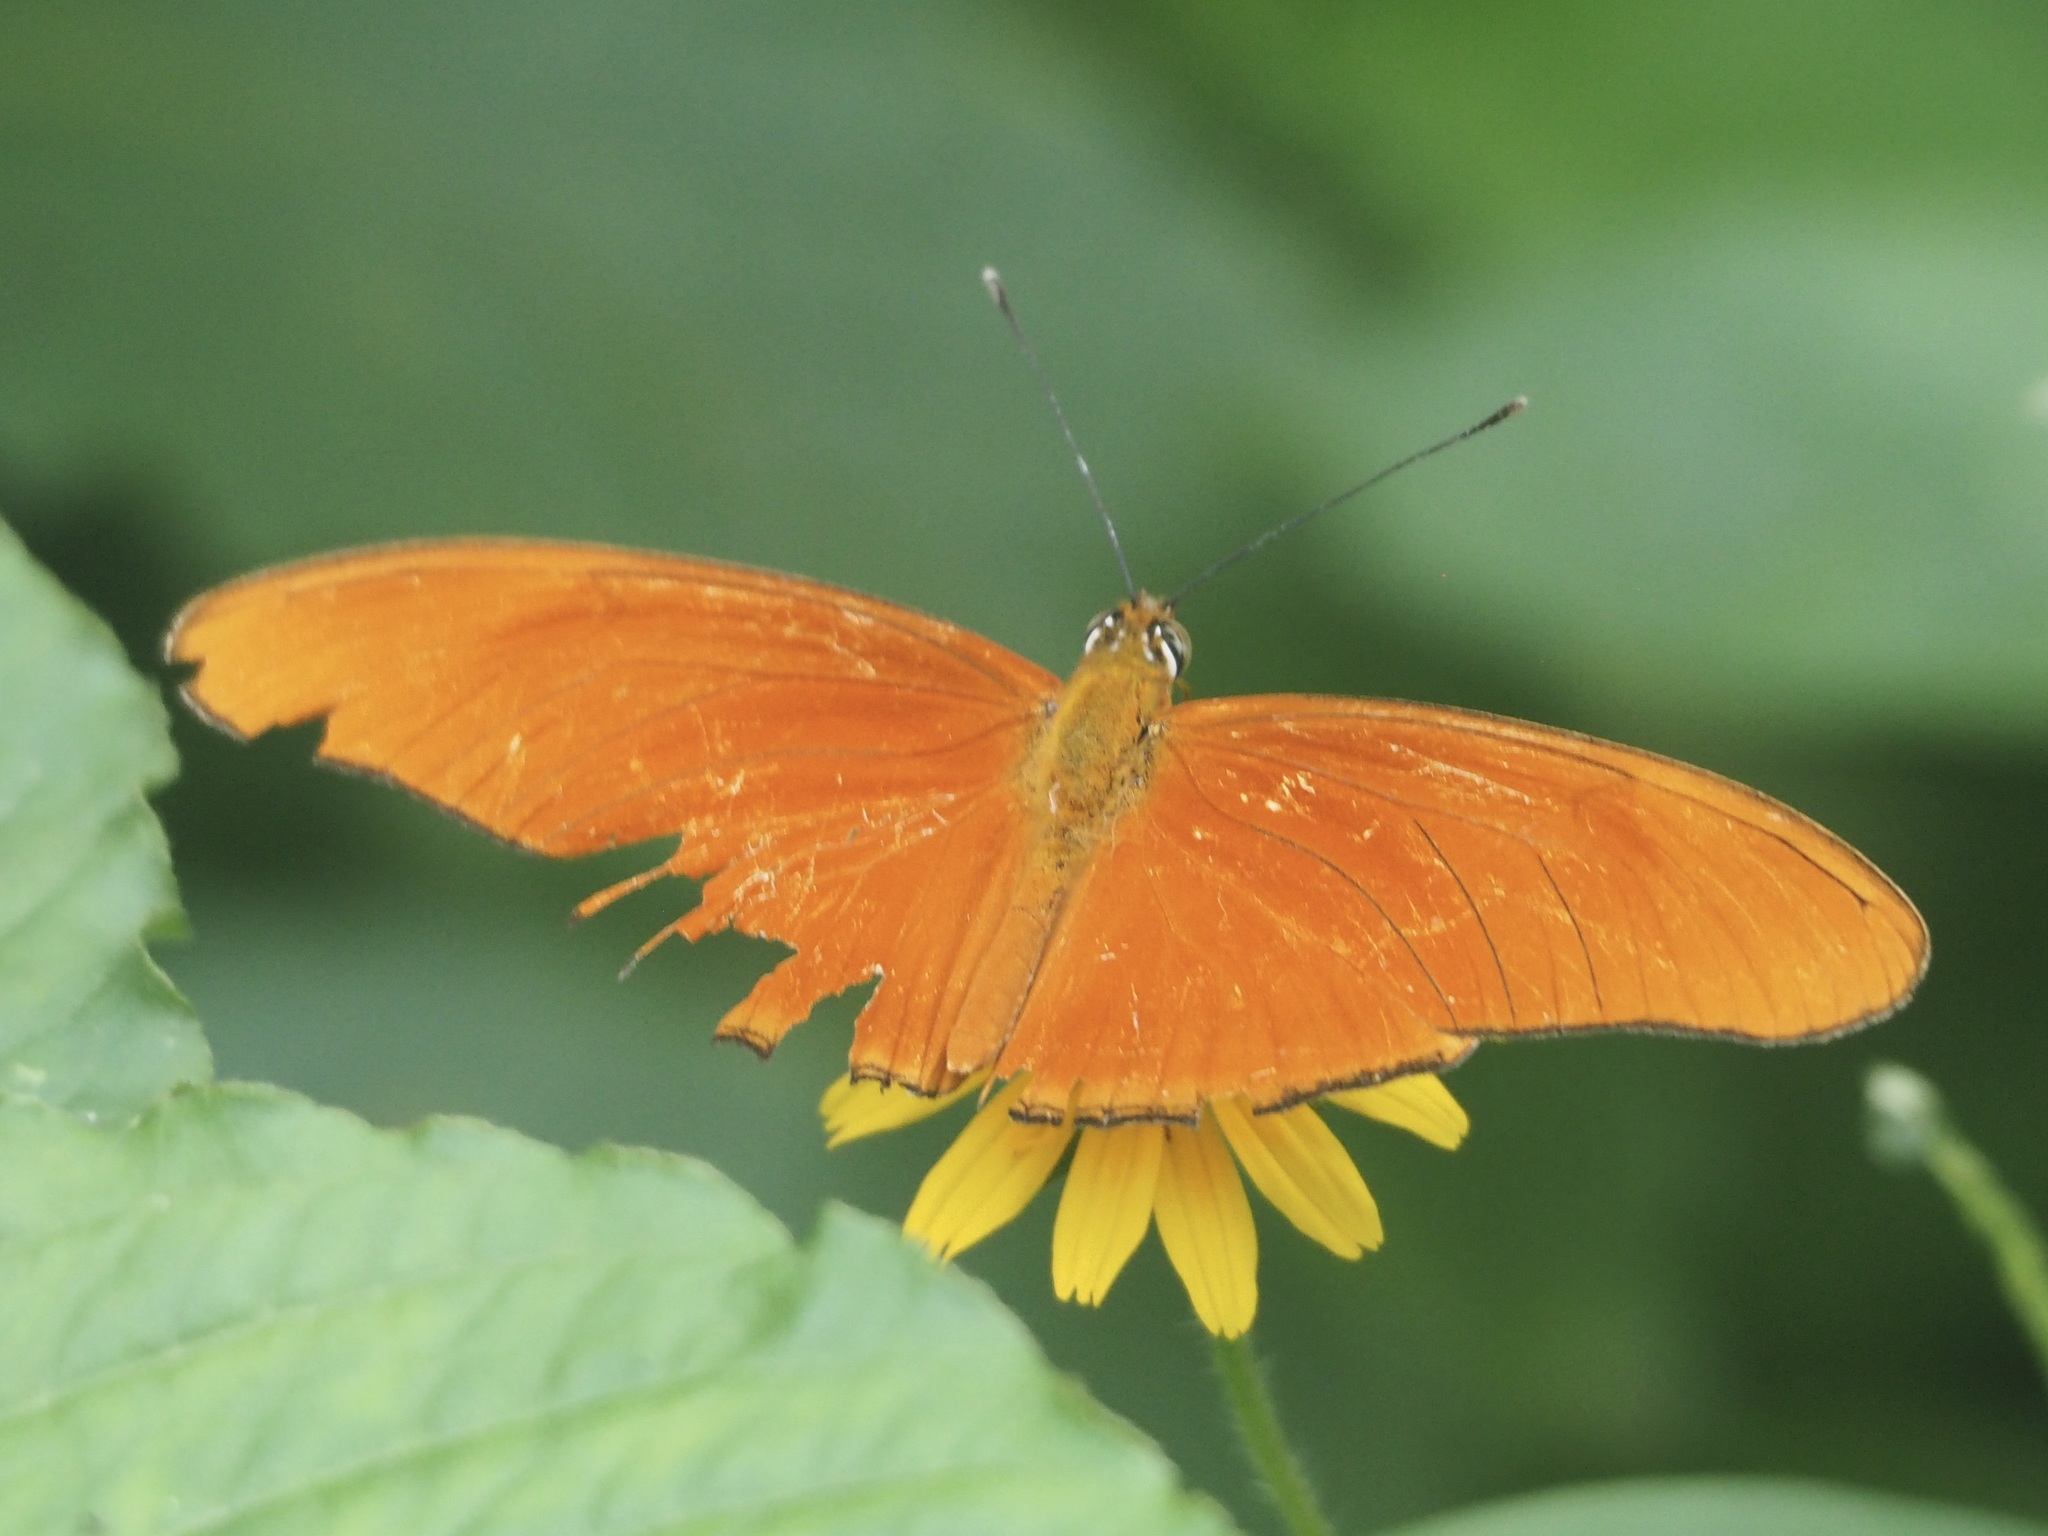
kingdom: Animalia
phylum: Arthropoda
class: Insecta
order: Lepidoptera
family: Nymphalidae
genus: Dryas
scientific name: Dryas iulia
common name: Flambeau
